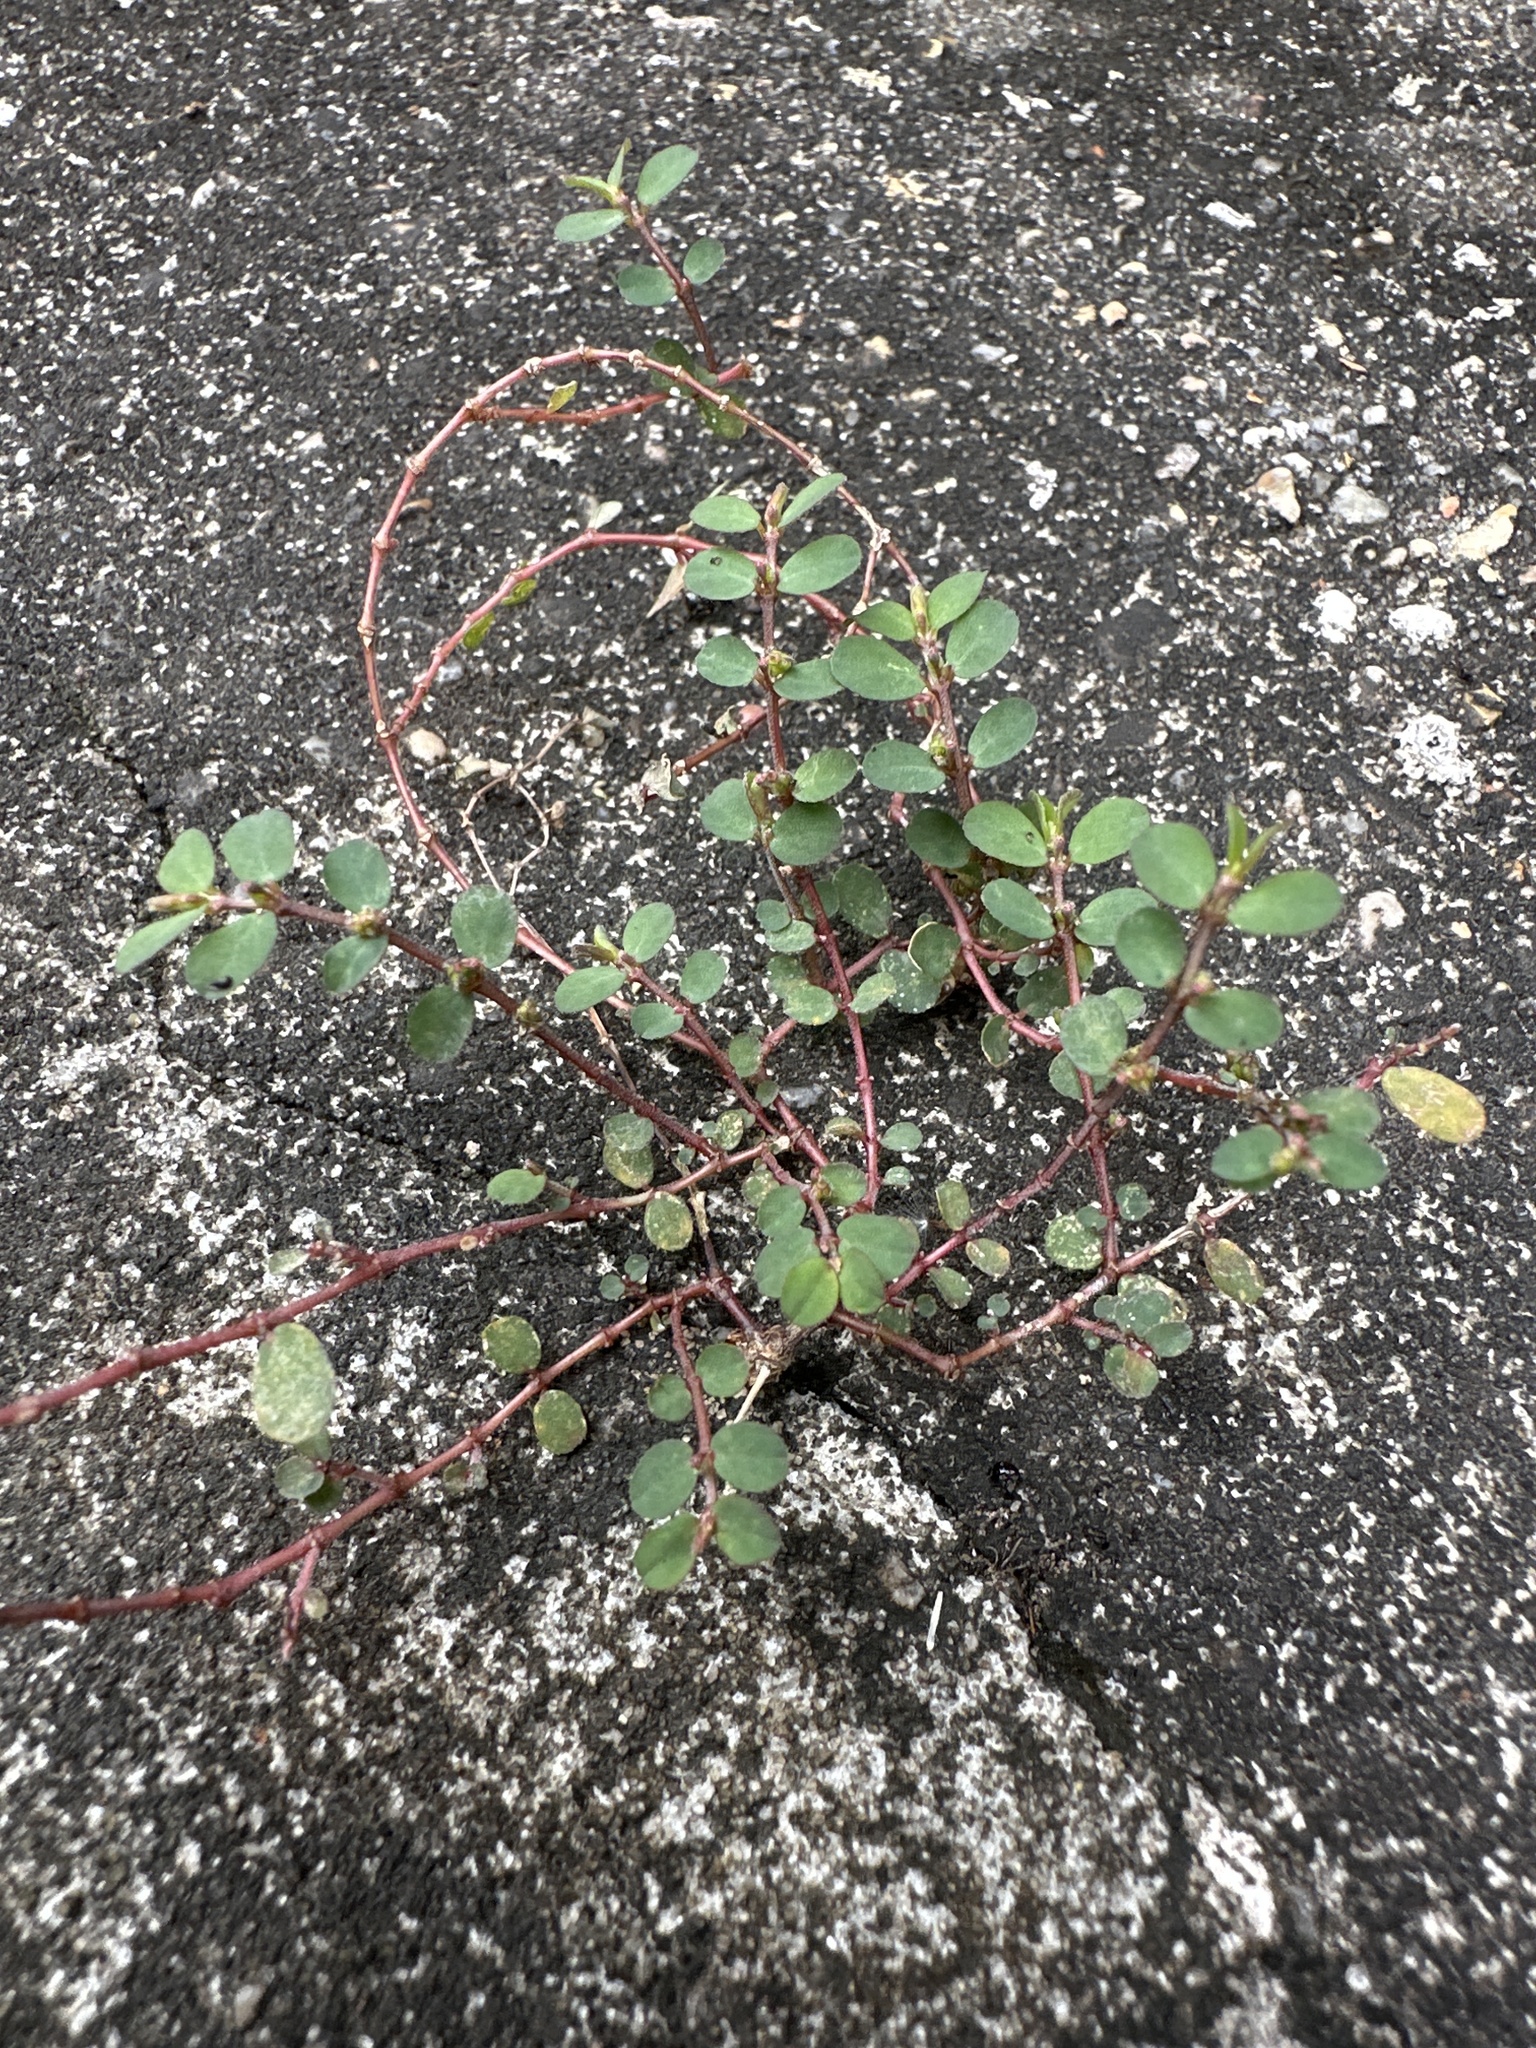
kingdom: Plantae
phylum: Tracheophyta
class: Magnoliopsida
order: Malpighiales
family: Euphorbiaceae
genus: Euphorbia
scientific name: Euphorbia prostrata
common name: Prostrate sandmat
